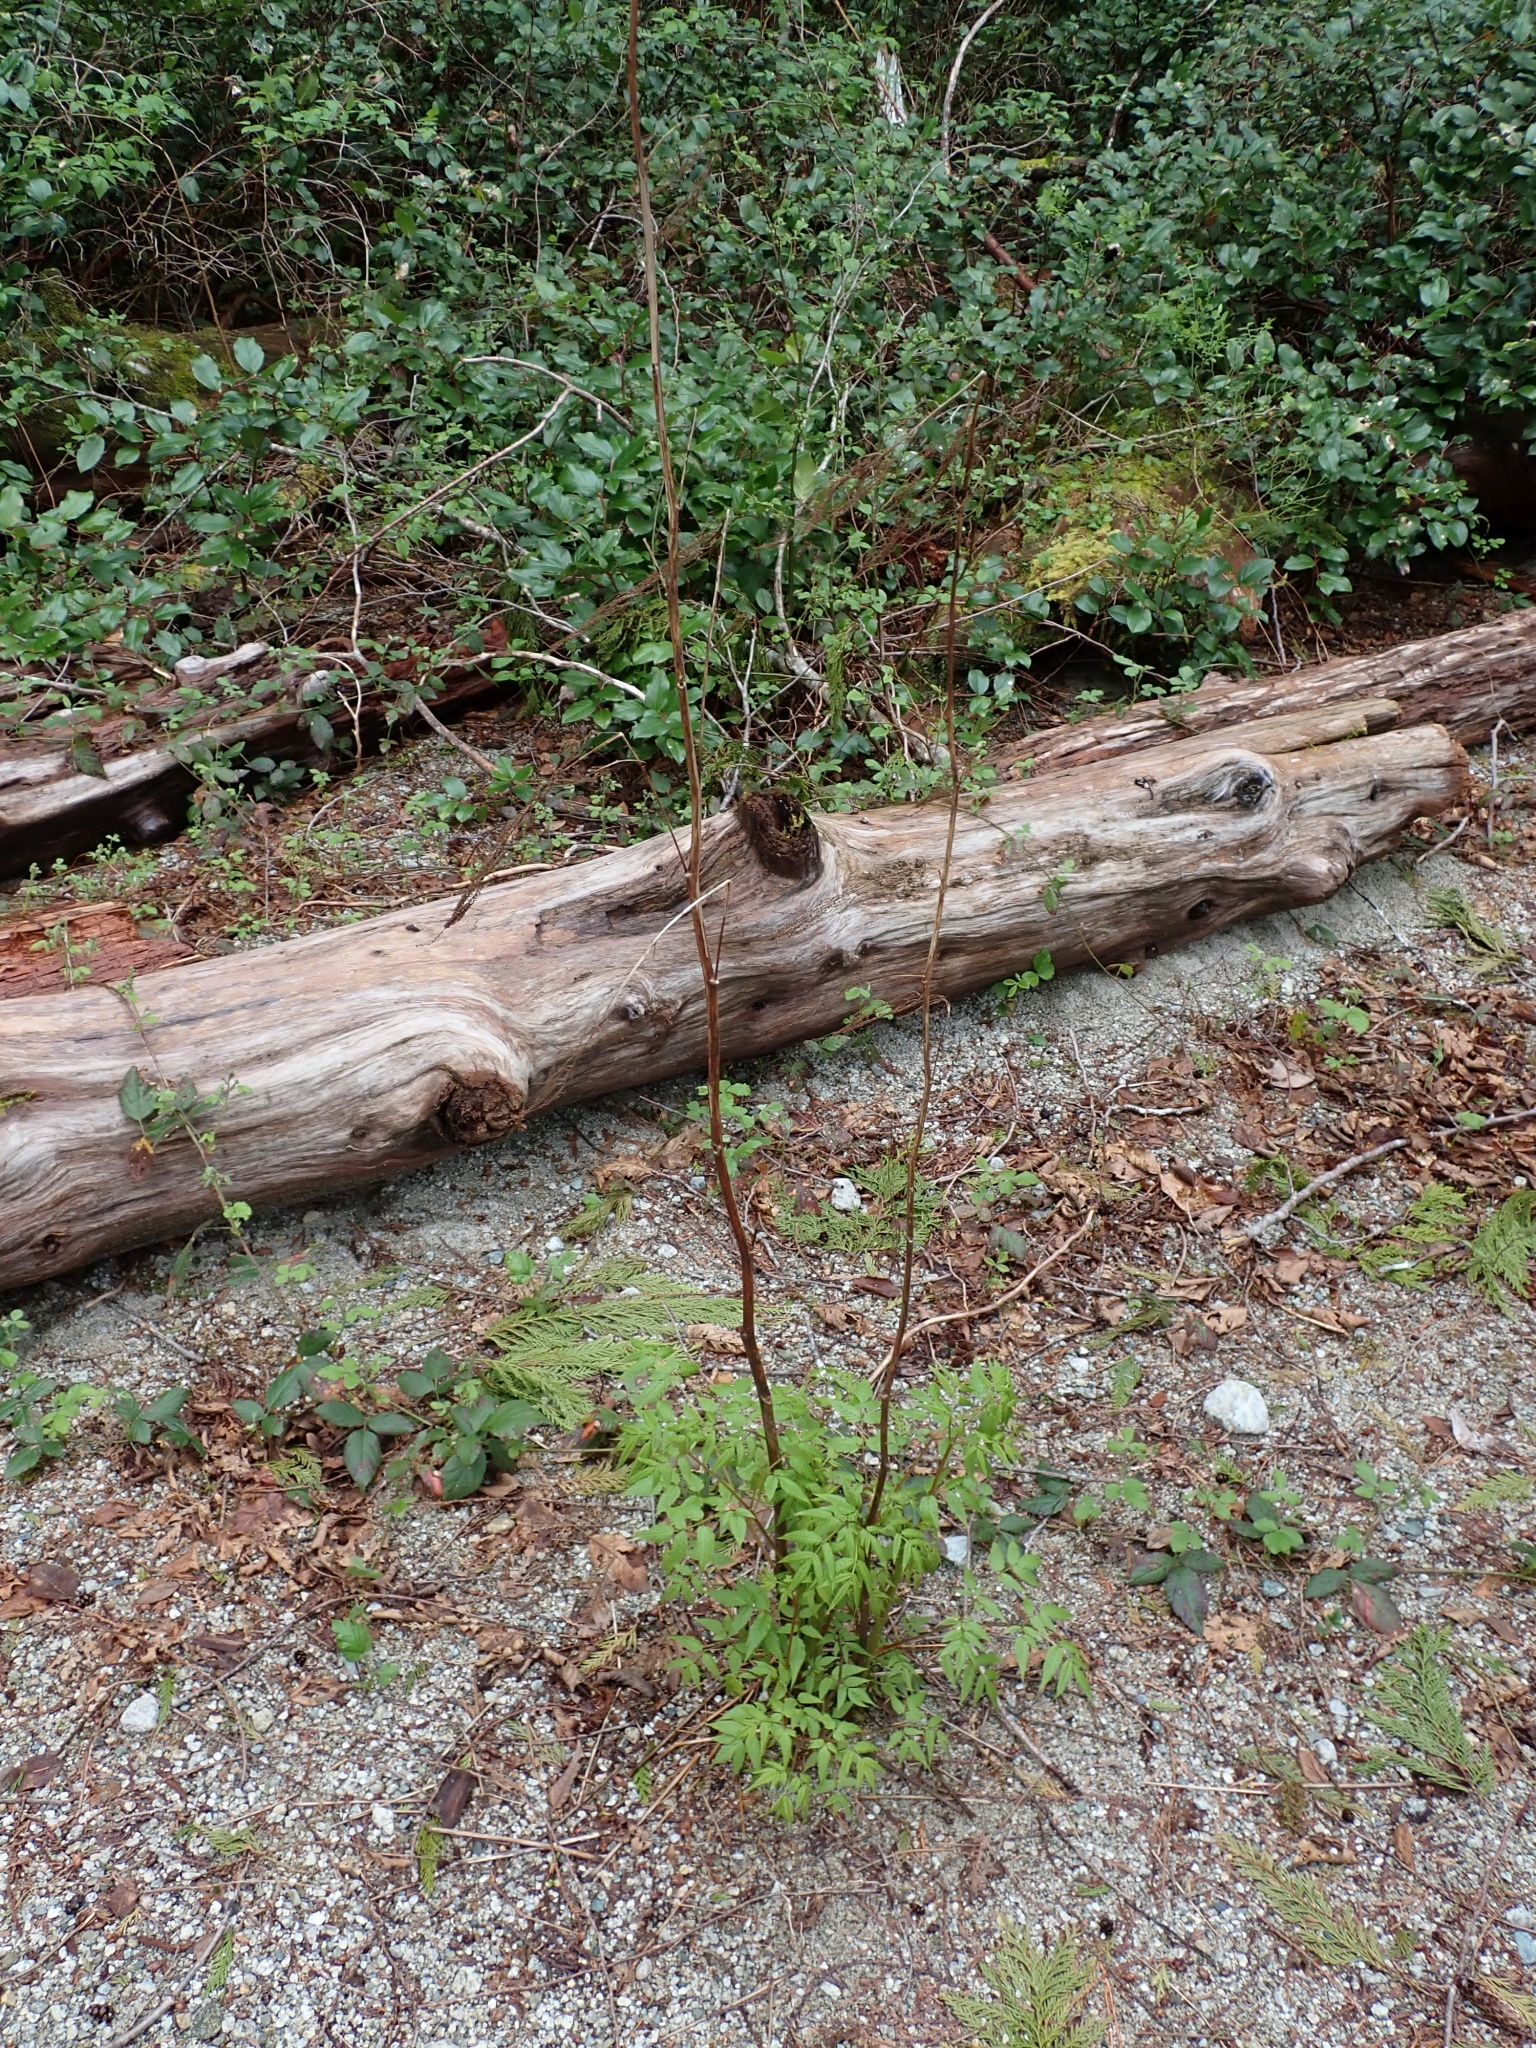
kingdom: Plantae
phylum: Tracheophyta
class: Magnoliopsida
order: Rosales
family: Rosaceae
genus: Aruncus
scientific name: Aruncus dioicus
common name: Buck's-beard
